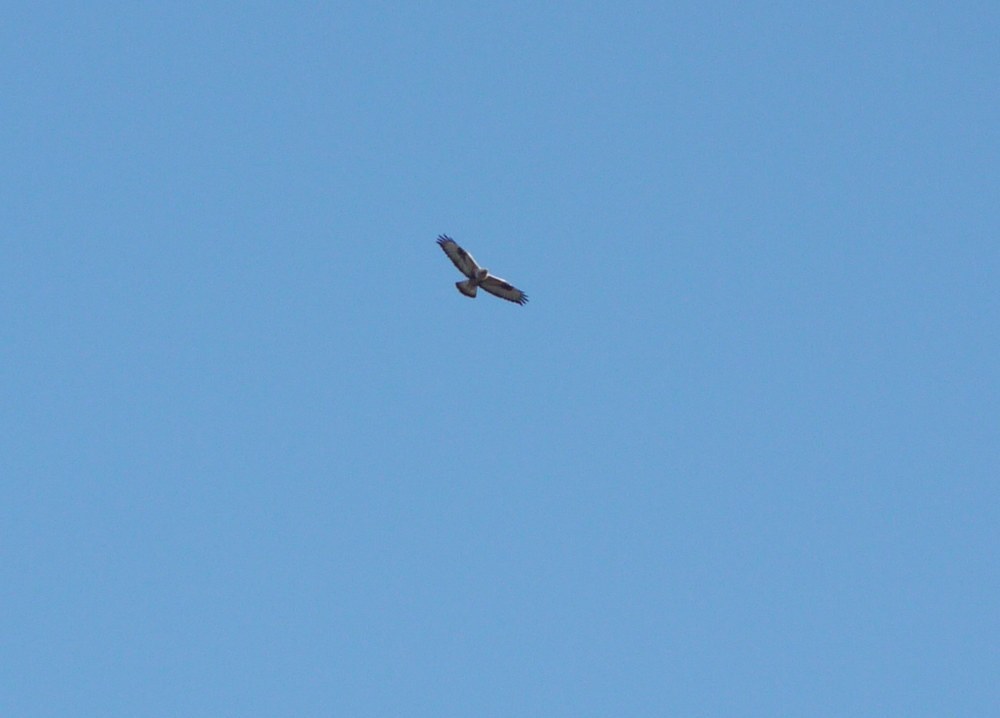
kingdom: Animalia
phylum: Chordata
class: Aves
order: Accipitriformes
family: Accipitridae
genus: Buteo
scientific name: Buteo lagopus
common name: Rough-legged buzzard
